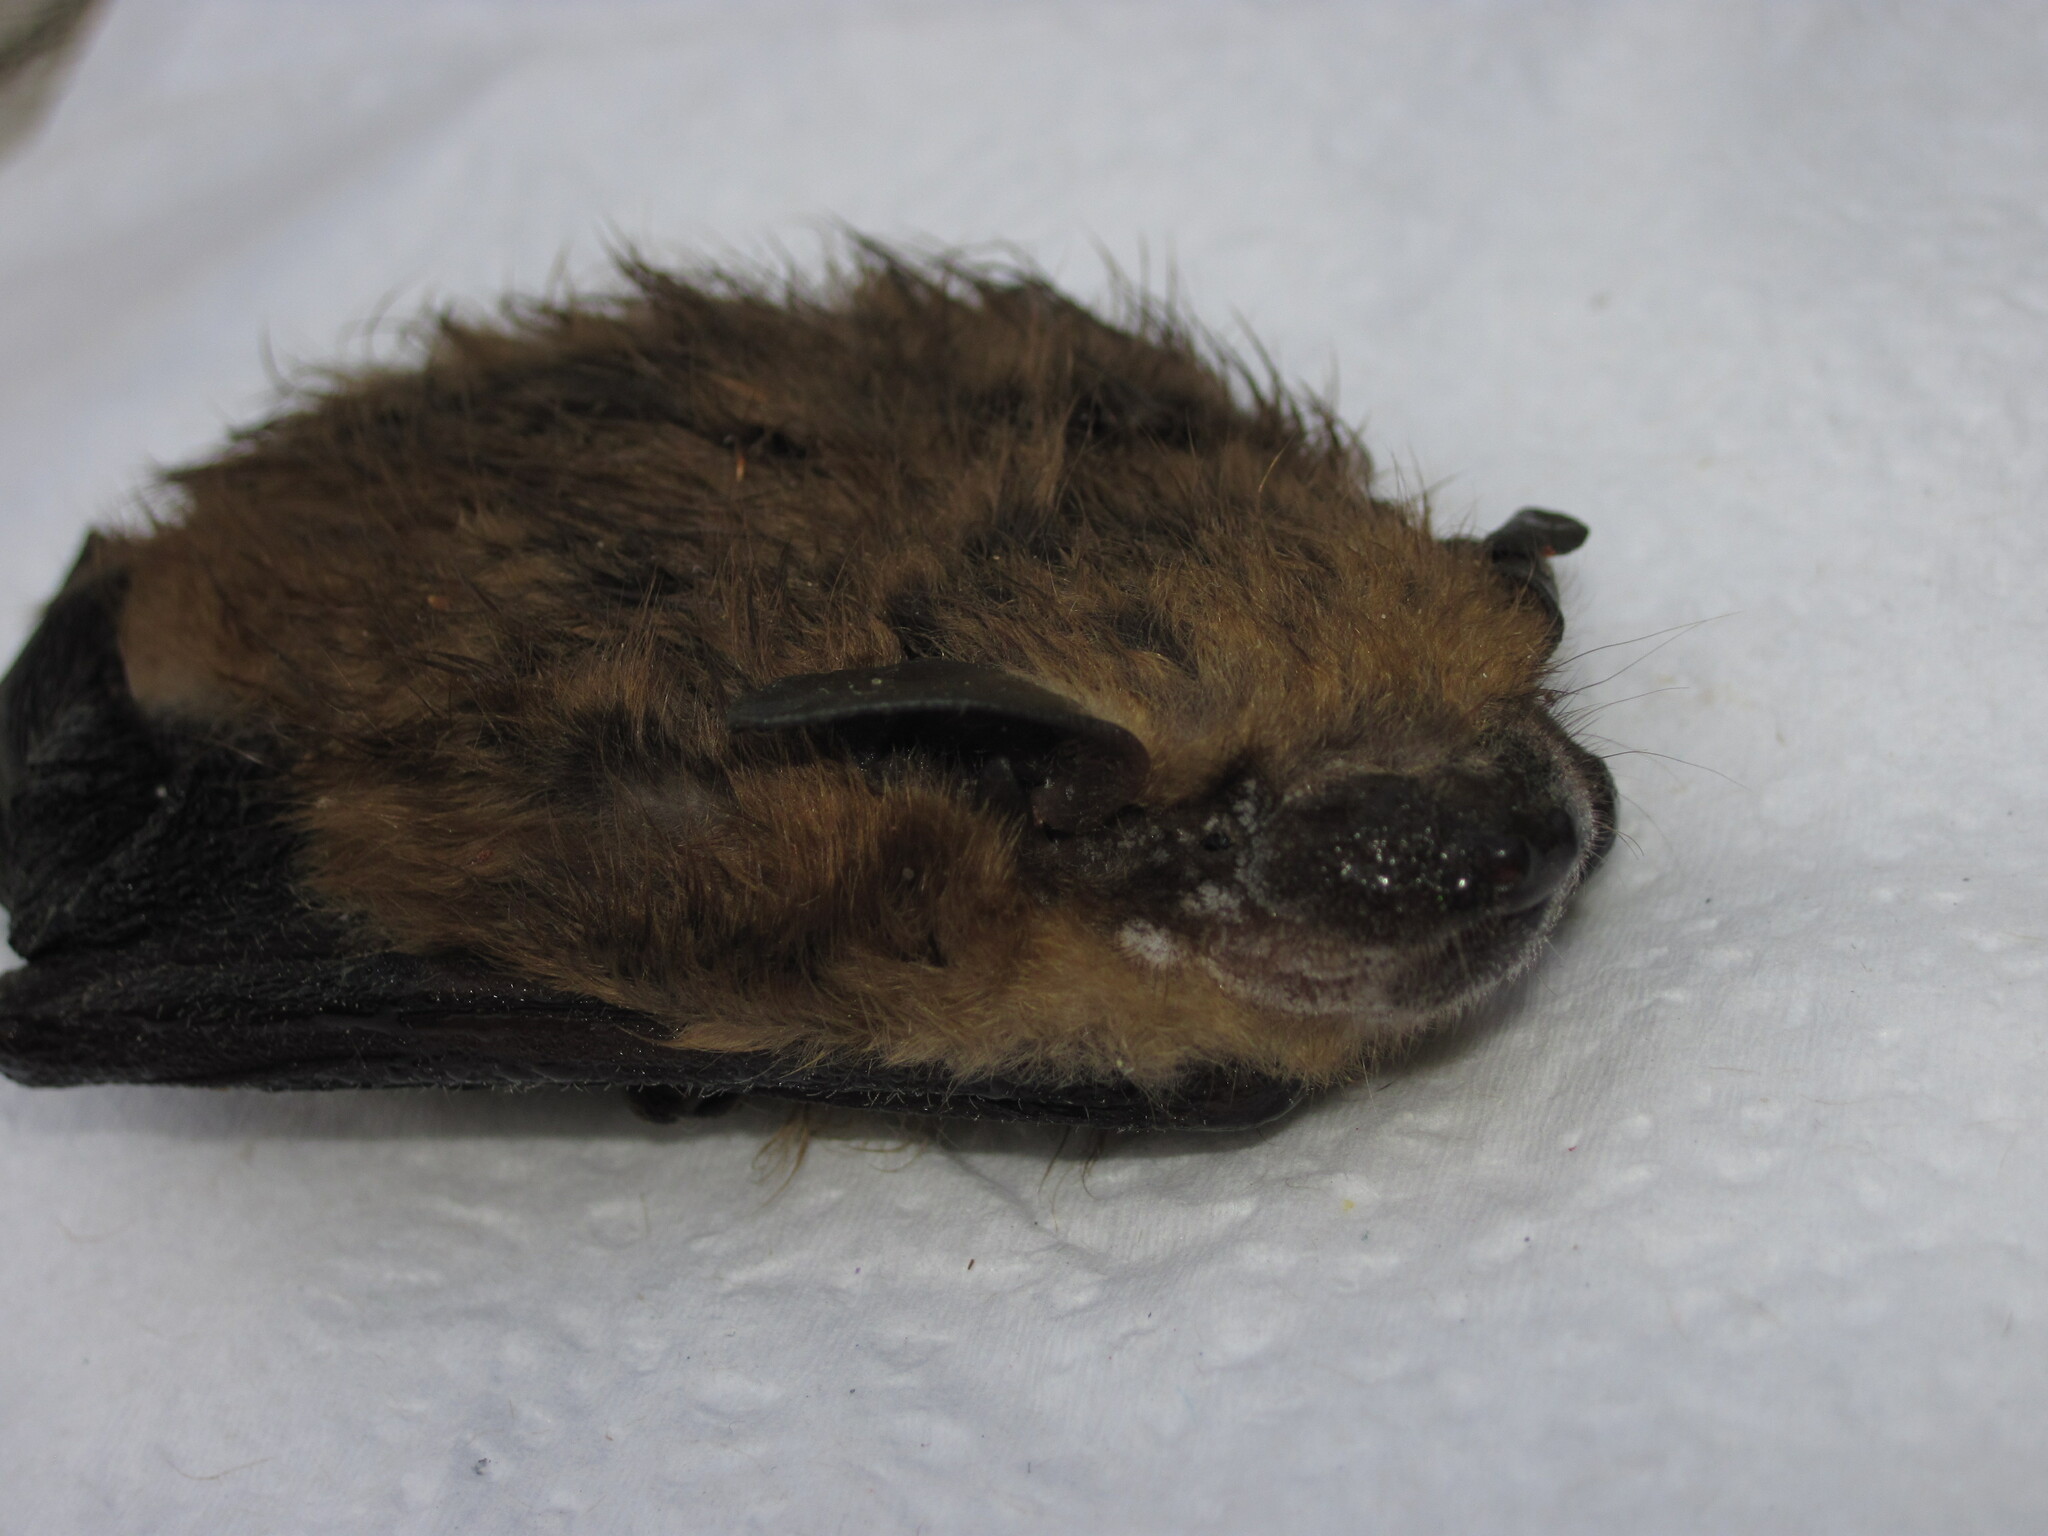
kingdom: Animalia
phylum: Chordata
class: Mammalia
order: Chiroptera
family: Vespertilionidae
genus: Eptesicus
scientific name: Eptesicus fuscus
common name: Big brown bat
